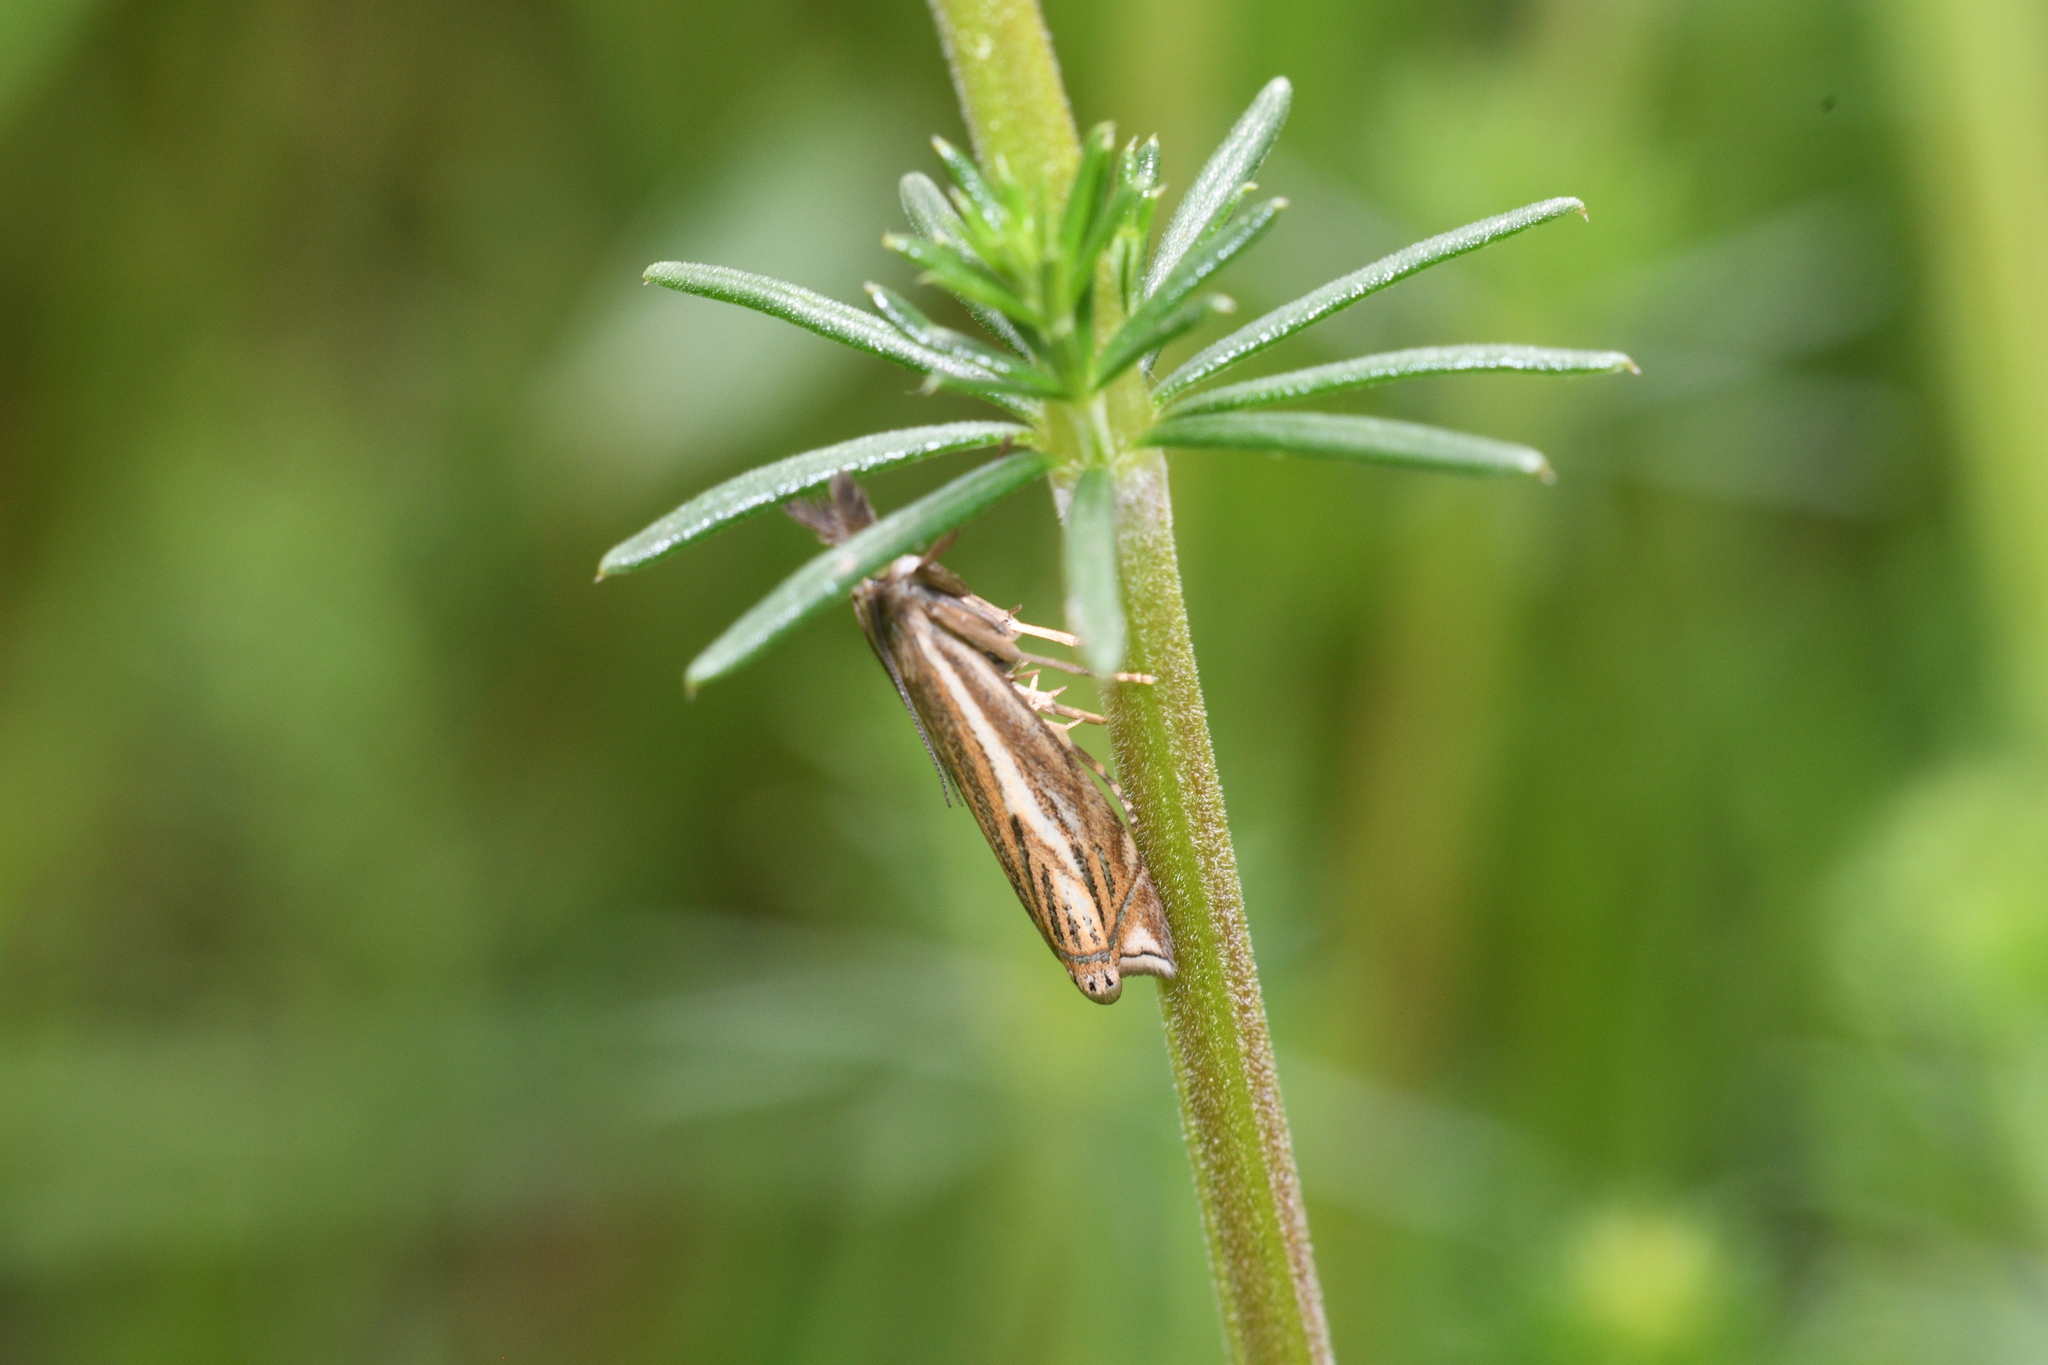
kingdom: Animalia
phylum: Arthropoda
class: Insecta
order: Lepidoptera
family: Crambidae
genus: Crambus
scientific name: Crambus nemorella
